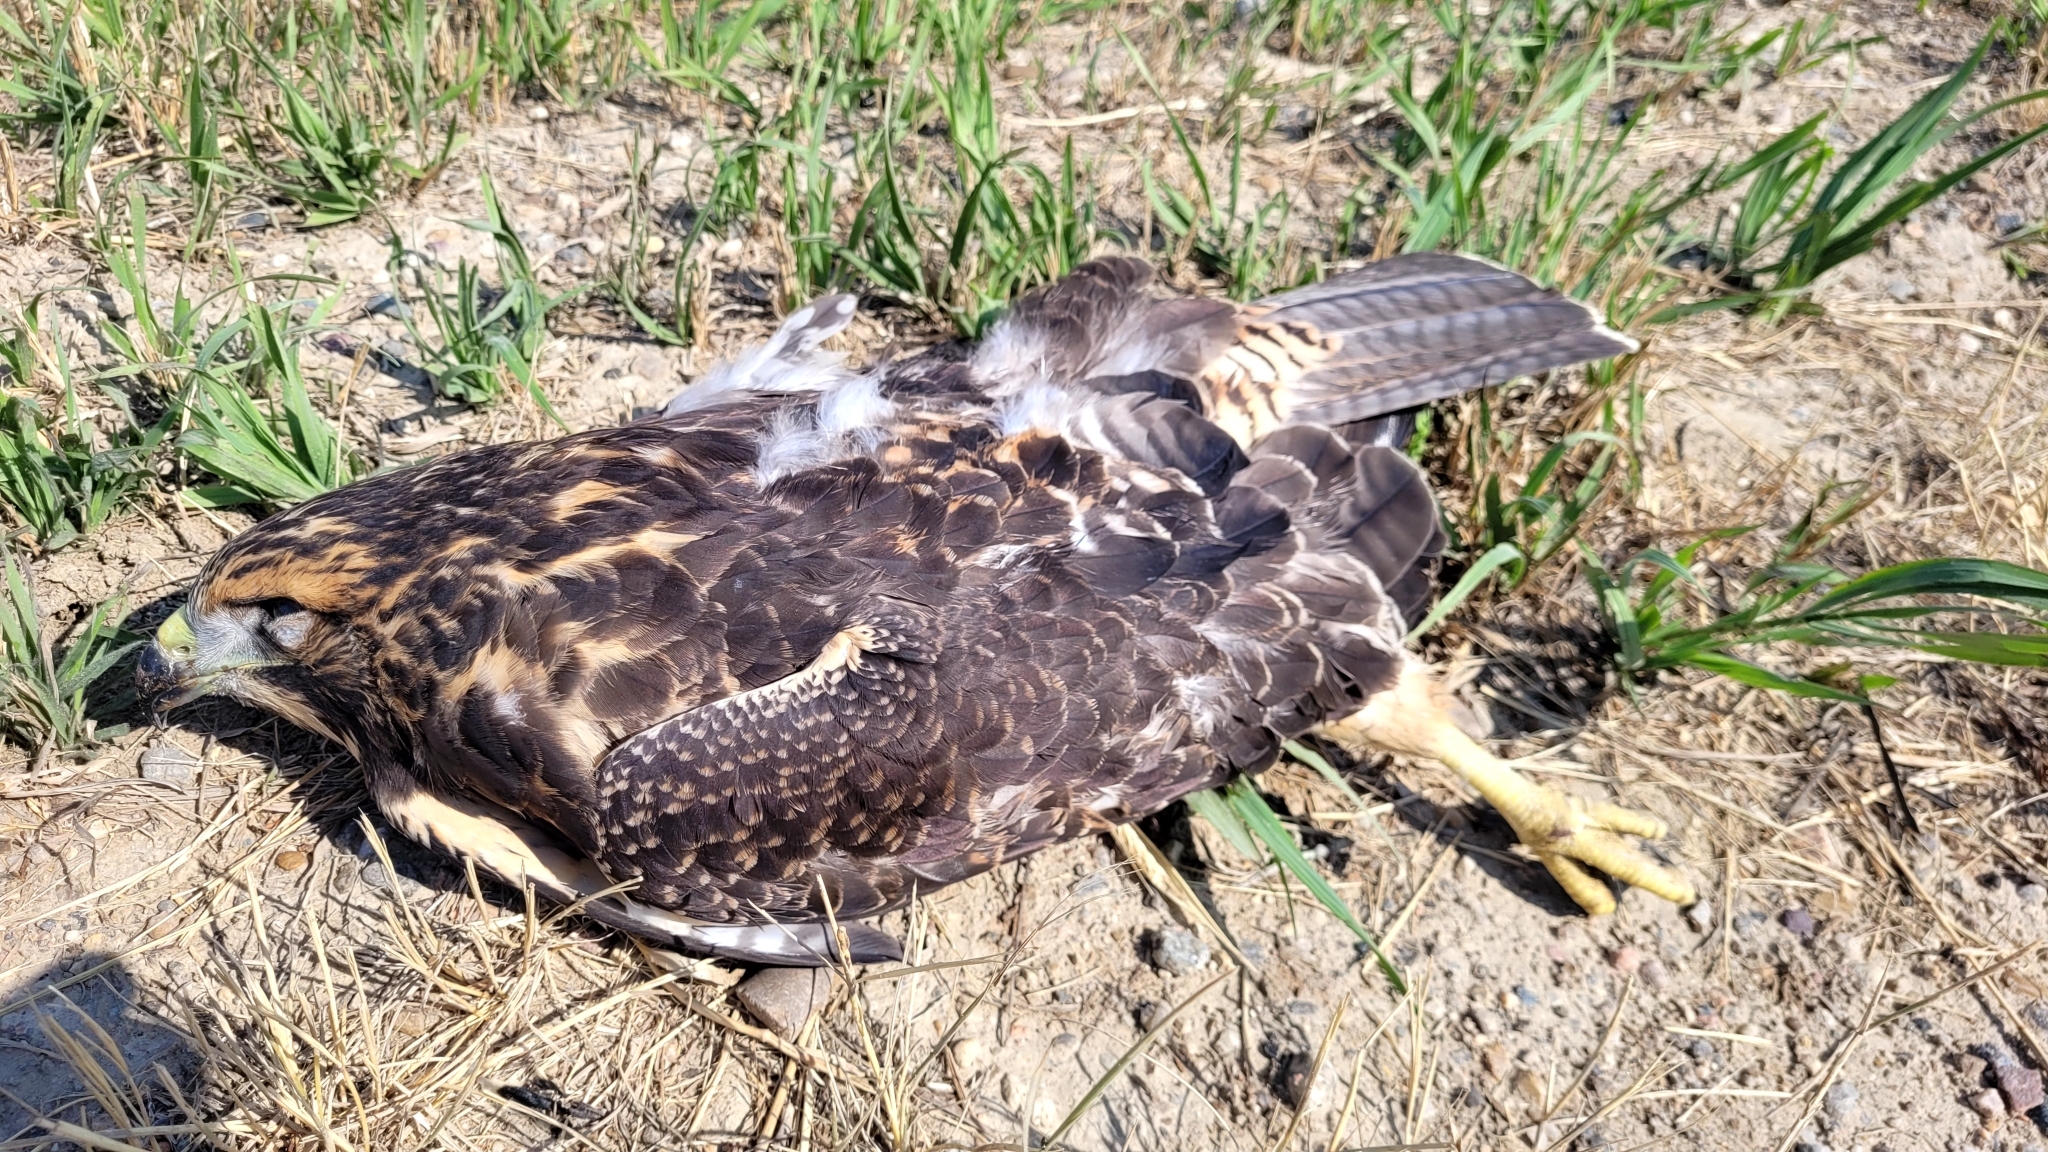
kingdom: Animalia
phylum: Chordata
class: Aves
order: Accipitriformes
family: Accipitridae
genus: Buteo
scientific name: Buteo swainsoni
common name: Swainson's hawk
